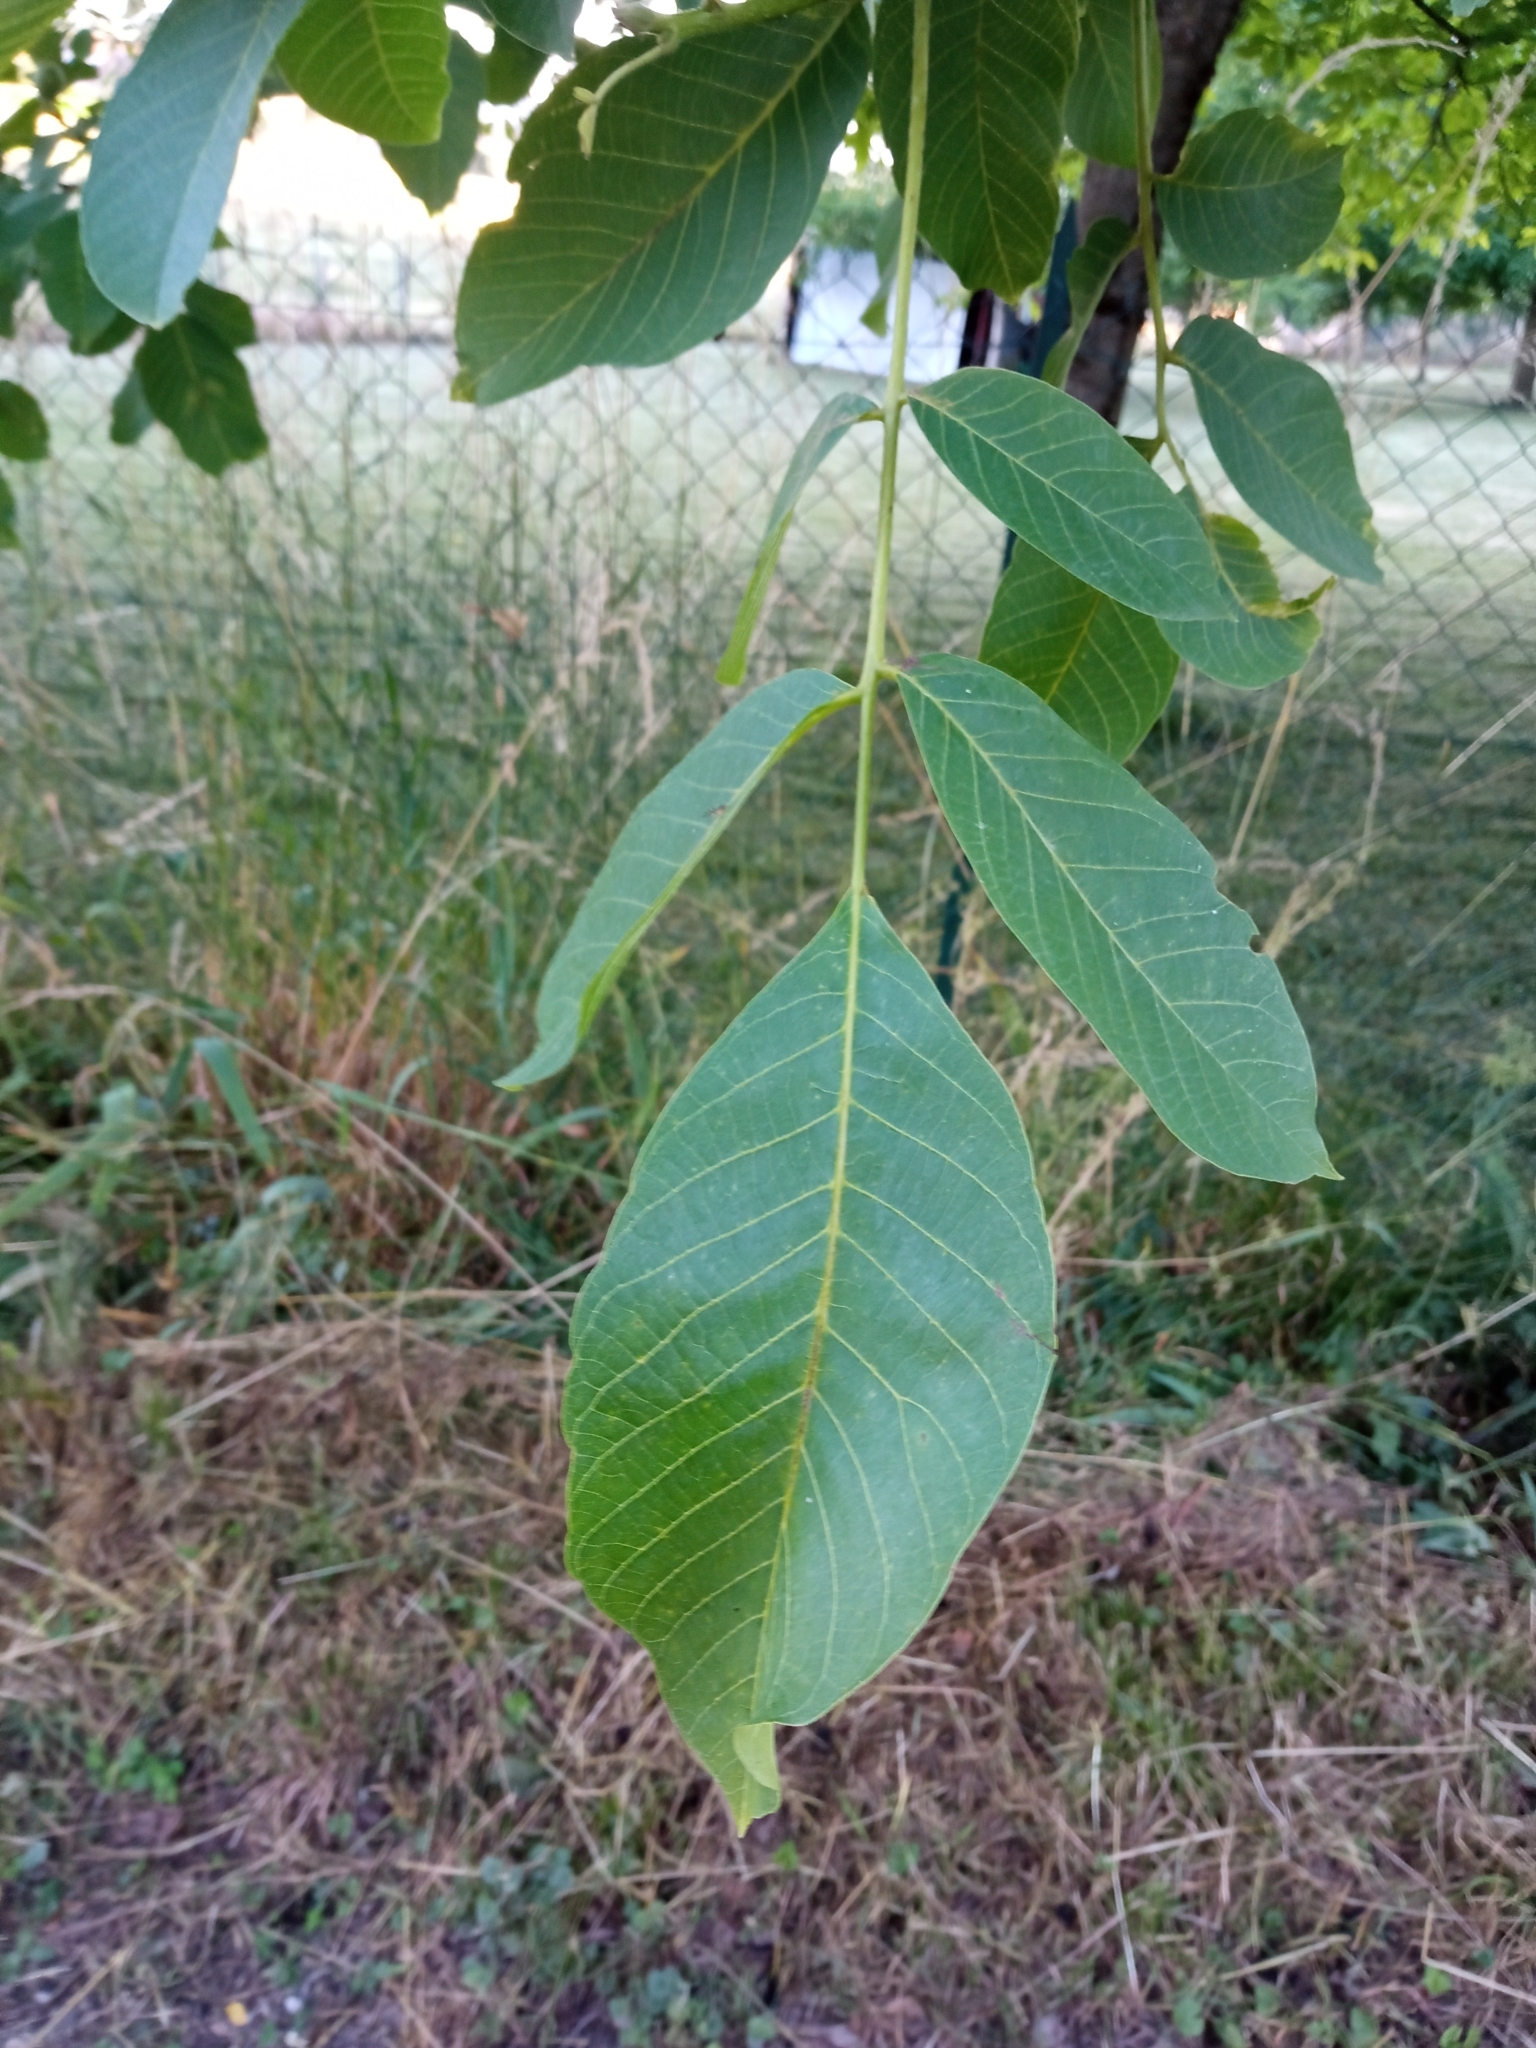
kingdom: Plantae
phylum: Tracheophyta
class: Magnoliopsida
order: Fagales
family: Juglandaceae
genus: Juglans
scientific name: Juglans regia
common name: Walnut
